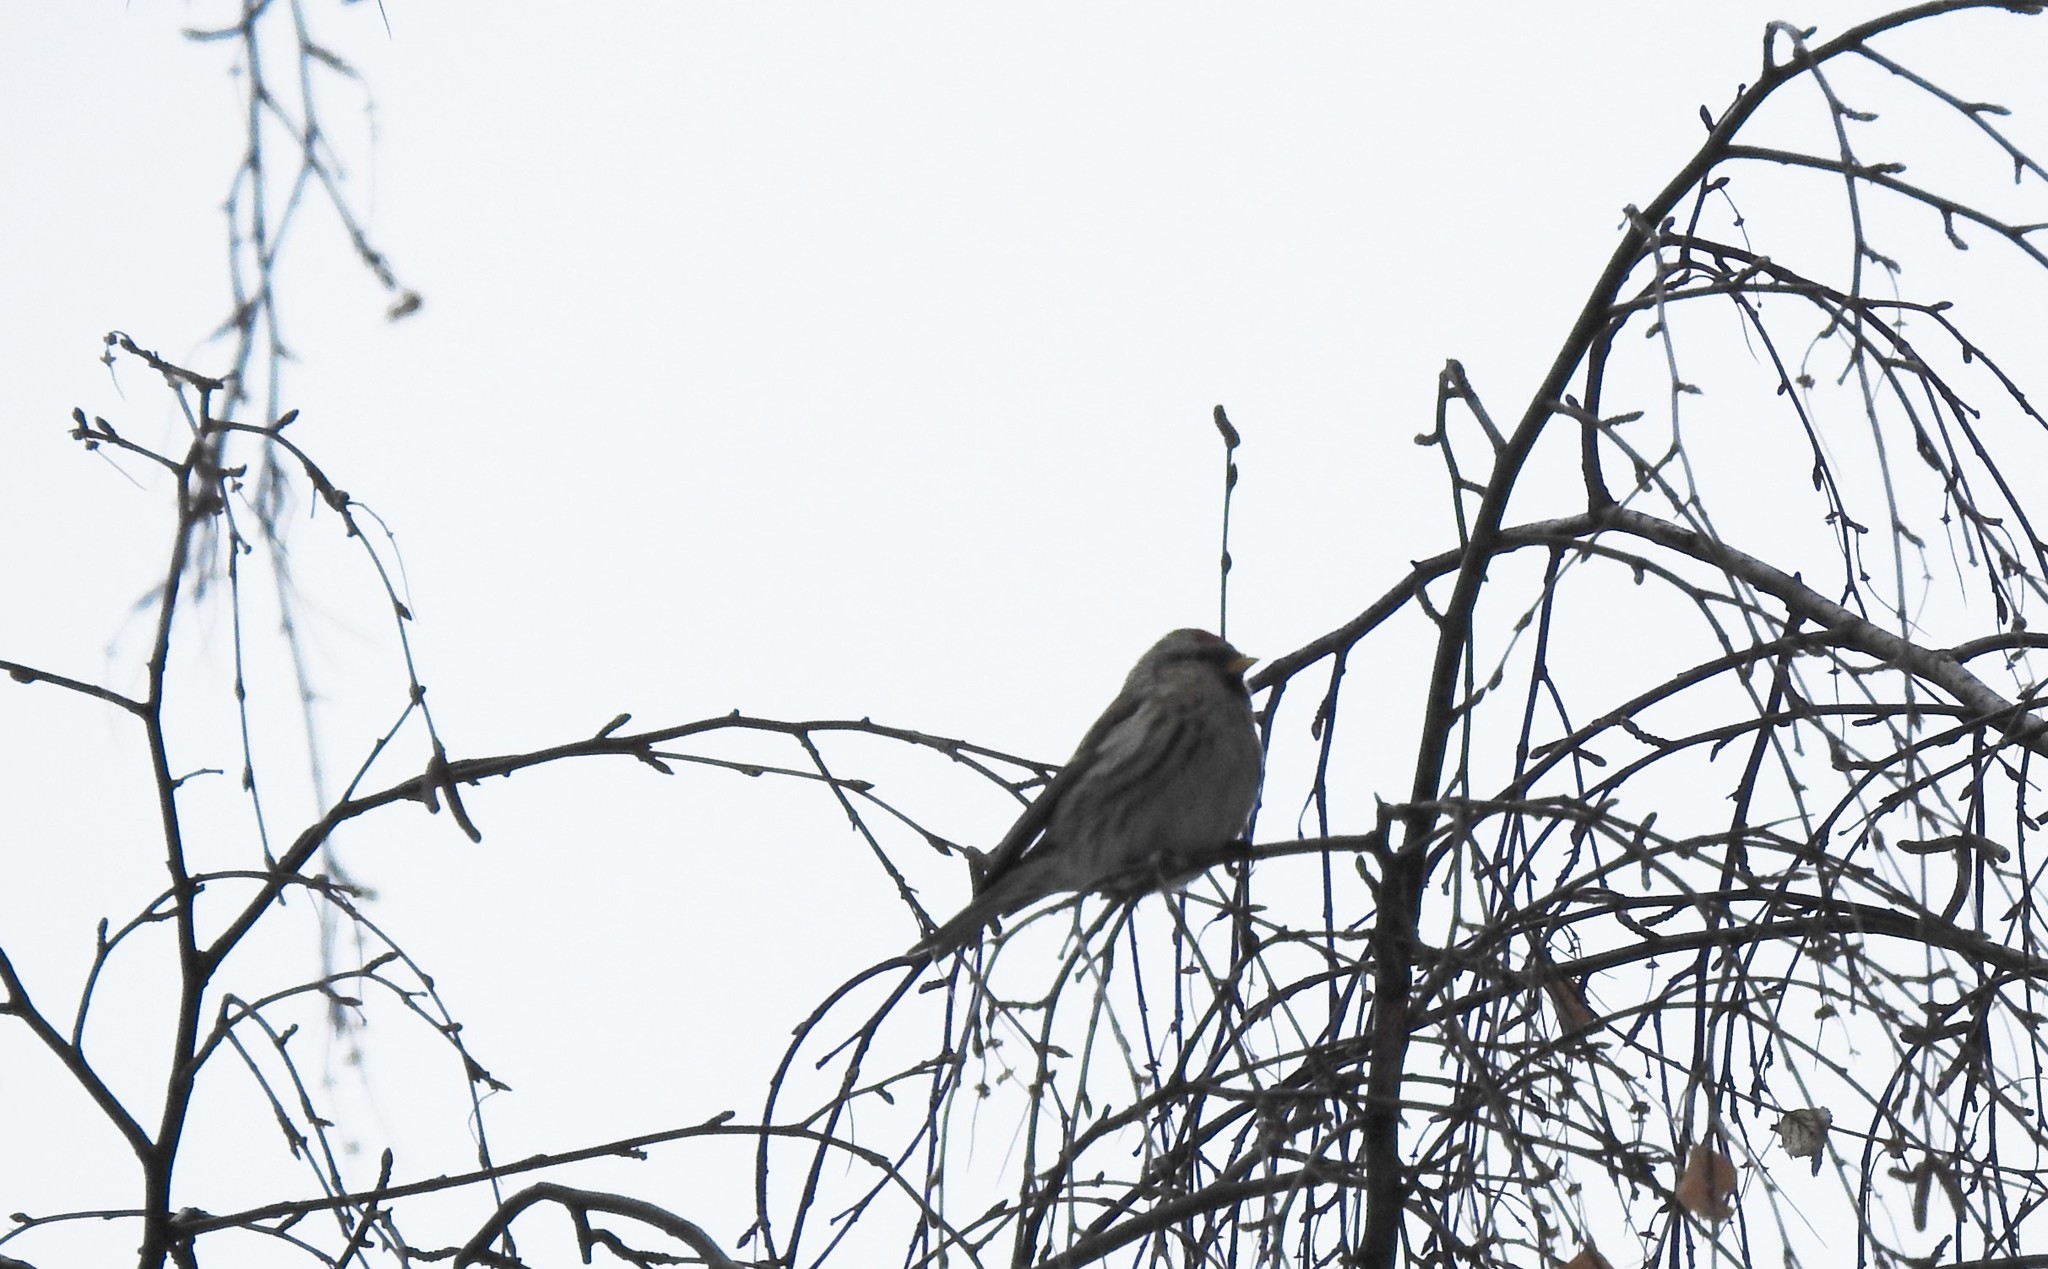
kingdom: Animalia
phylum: Chordata
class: Aves
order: Passeriformes
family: Fringillidae
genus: Acanthis
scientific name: Acanthis flammea
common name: Common redpoll
